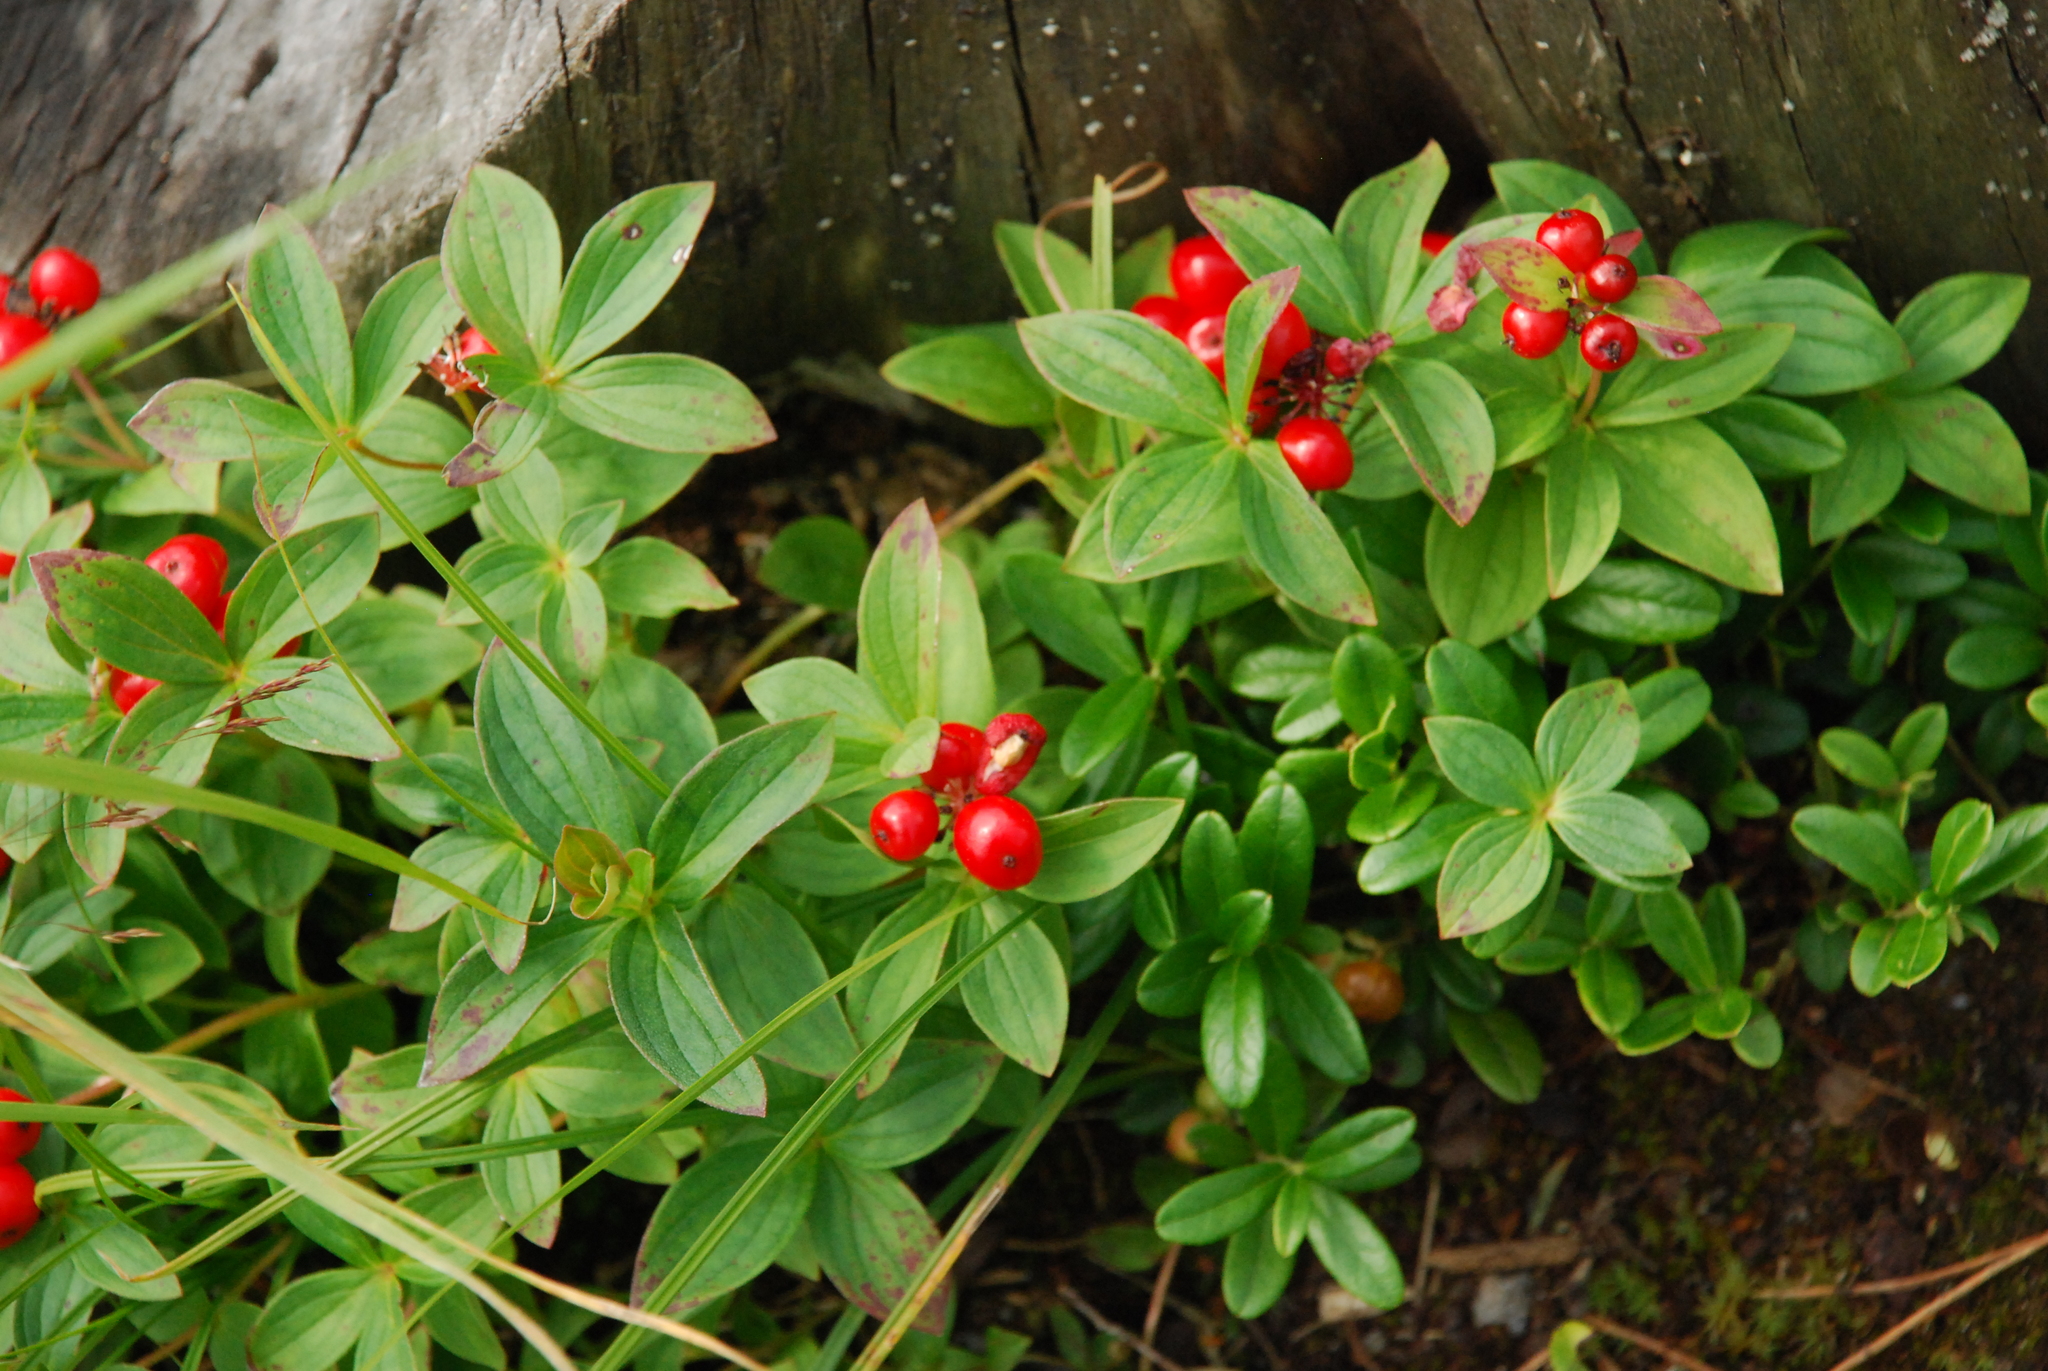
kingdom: Plantae
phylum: Tracheophyta
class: Magnoliopsida
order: Cornales
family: Cornaceae
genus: Cornus
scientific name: Cornus suecica
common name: Dwarf cornel
